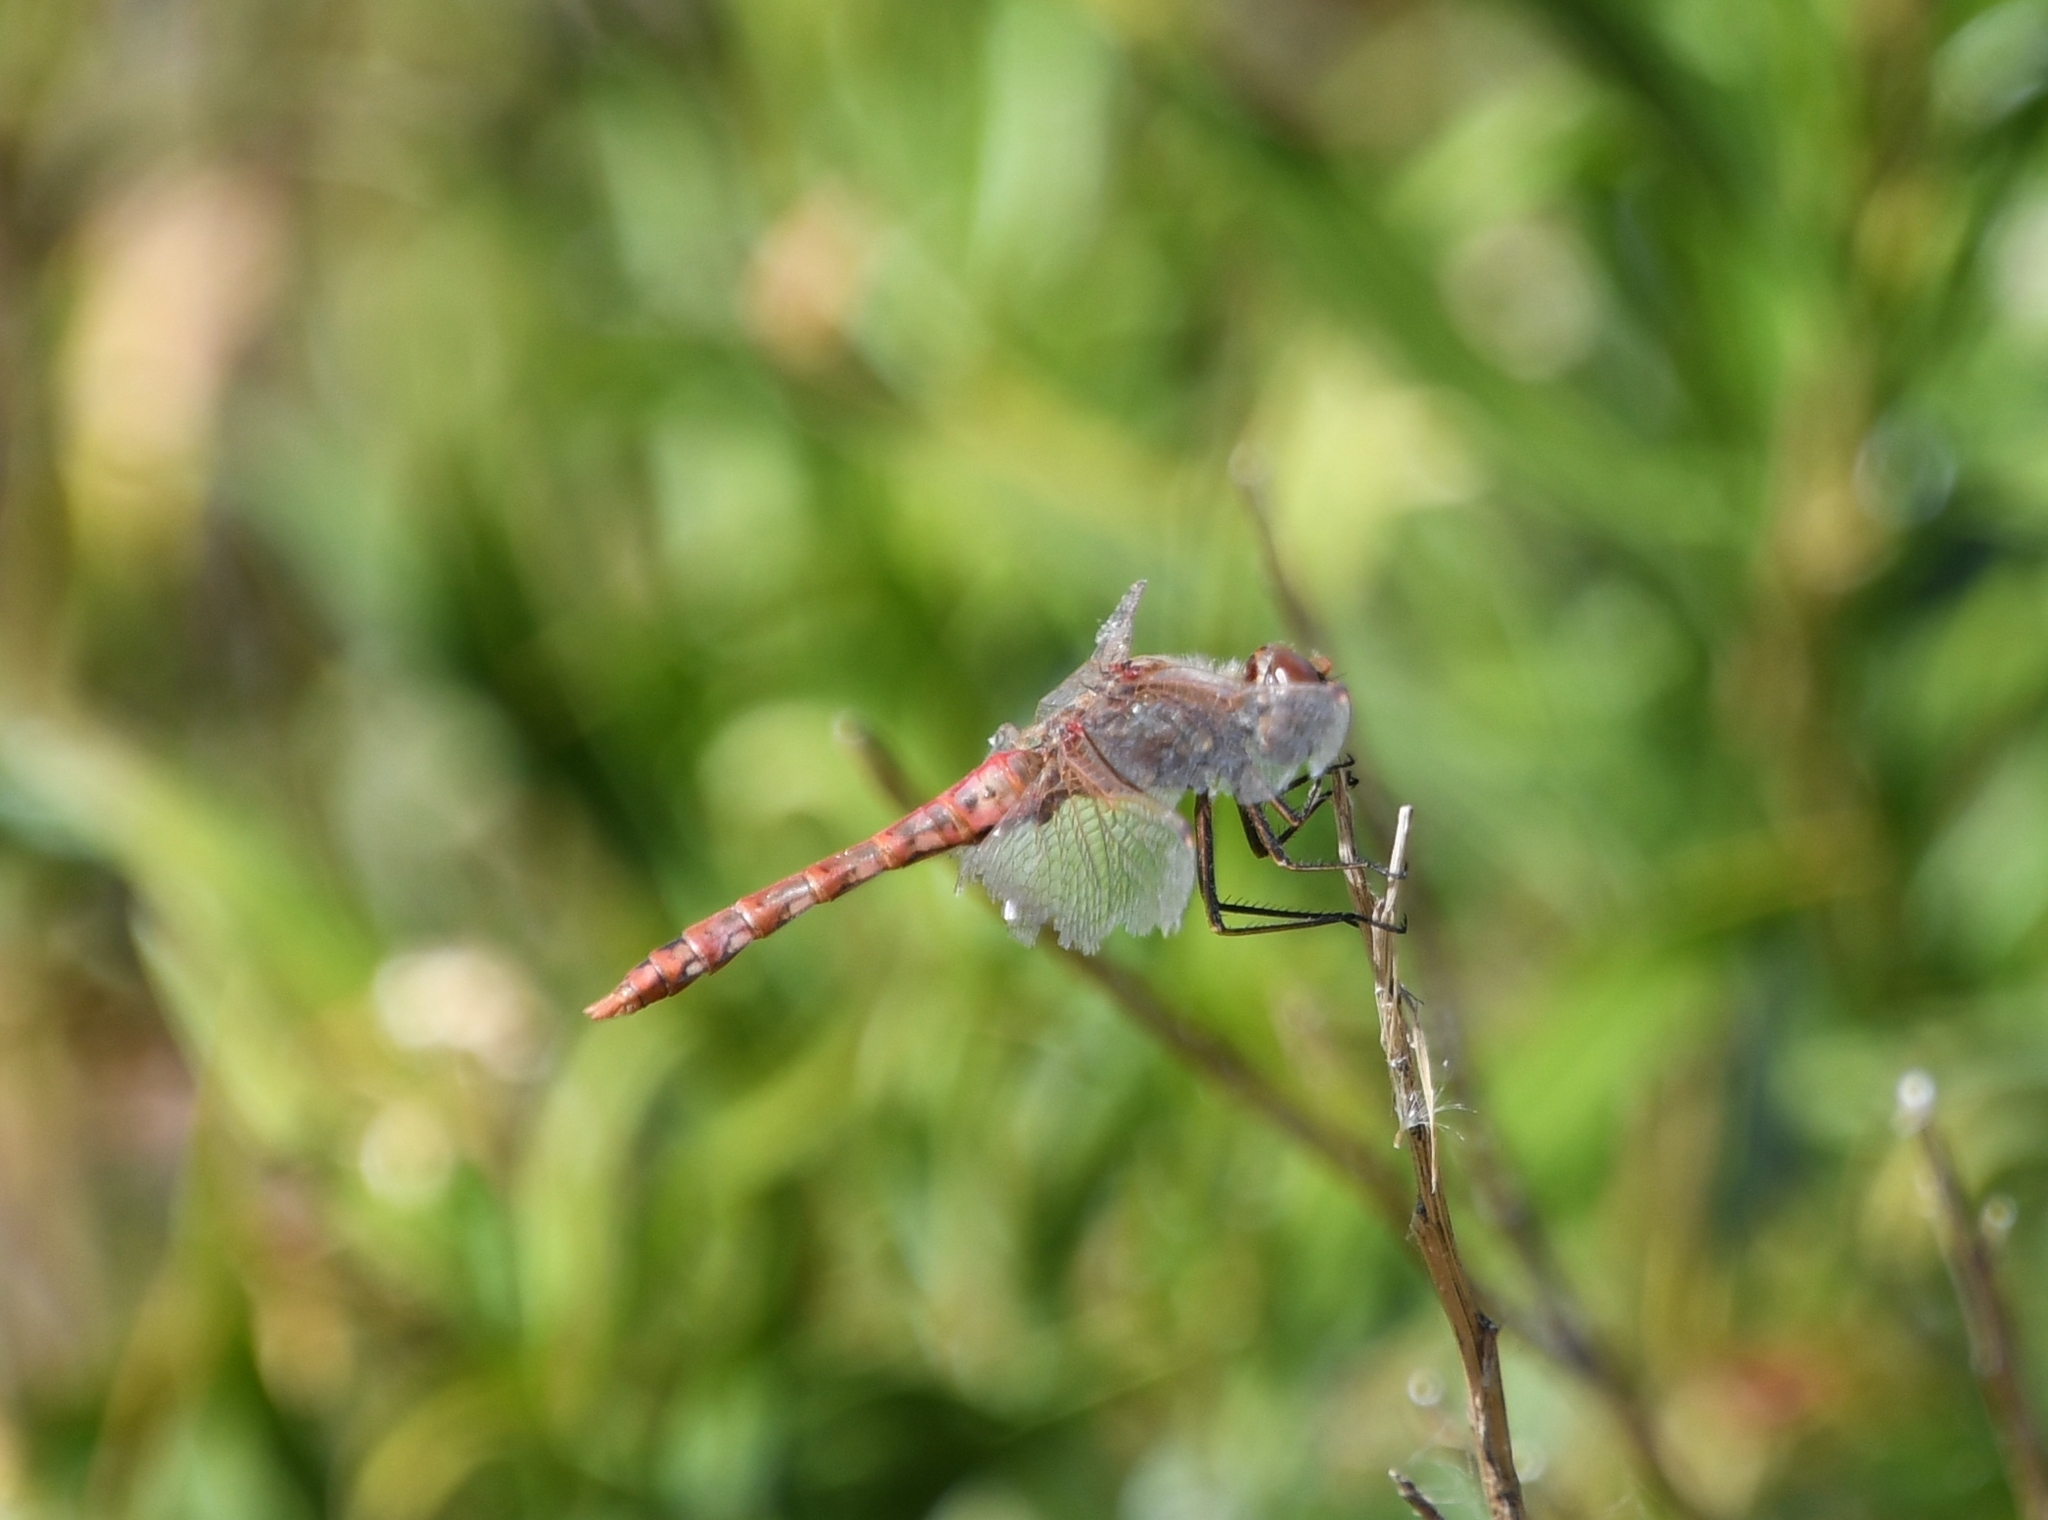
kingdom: Animalia
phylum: Arthropoda
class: Insecta
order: Odonata
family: Libellulidae
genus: Sympetrum
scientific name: Sympetrum corruptum
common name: Variegated meadowhawk
